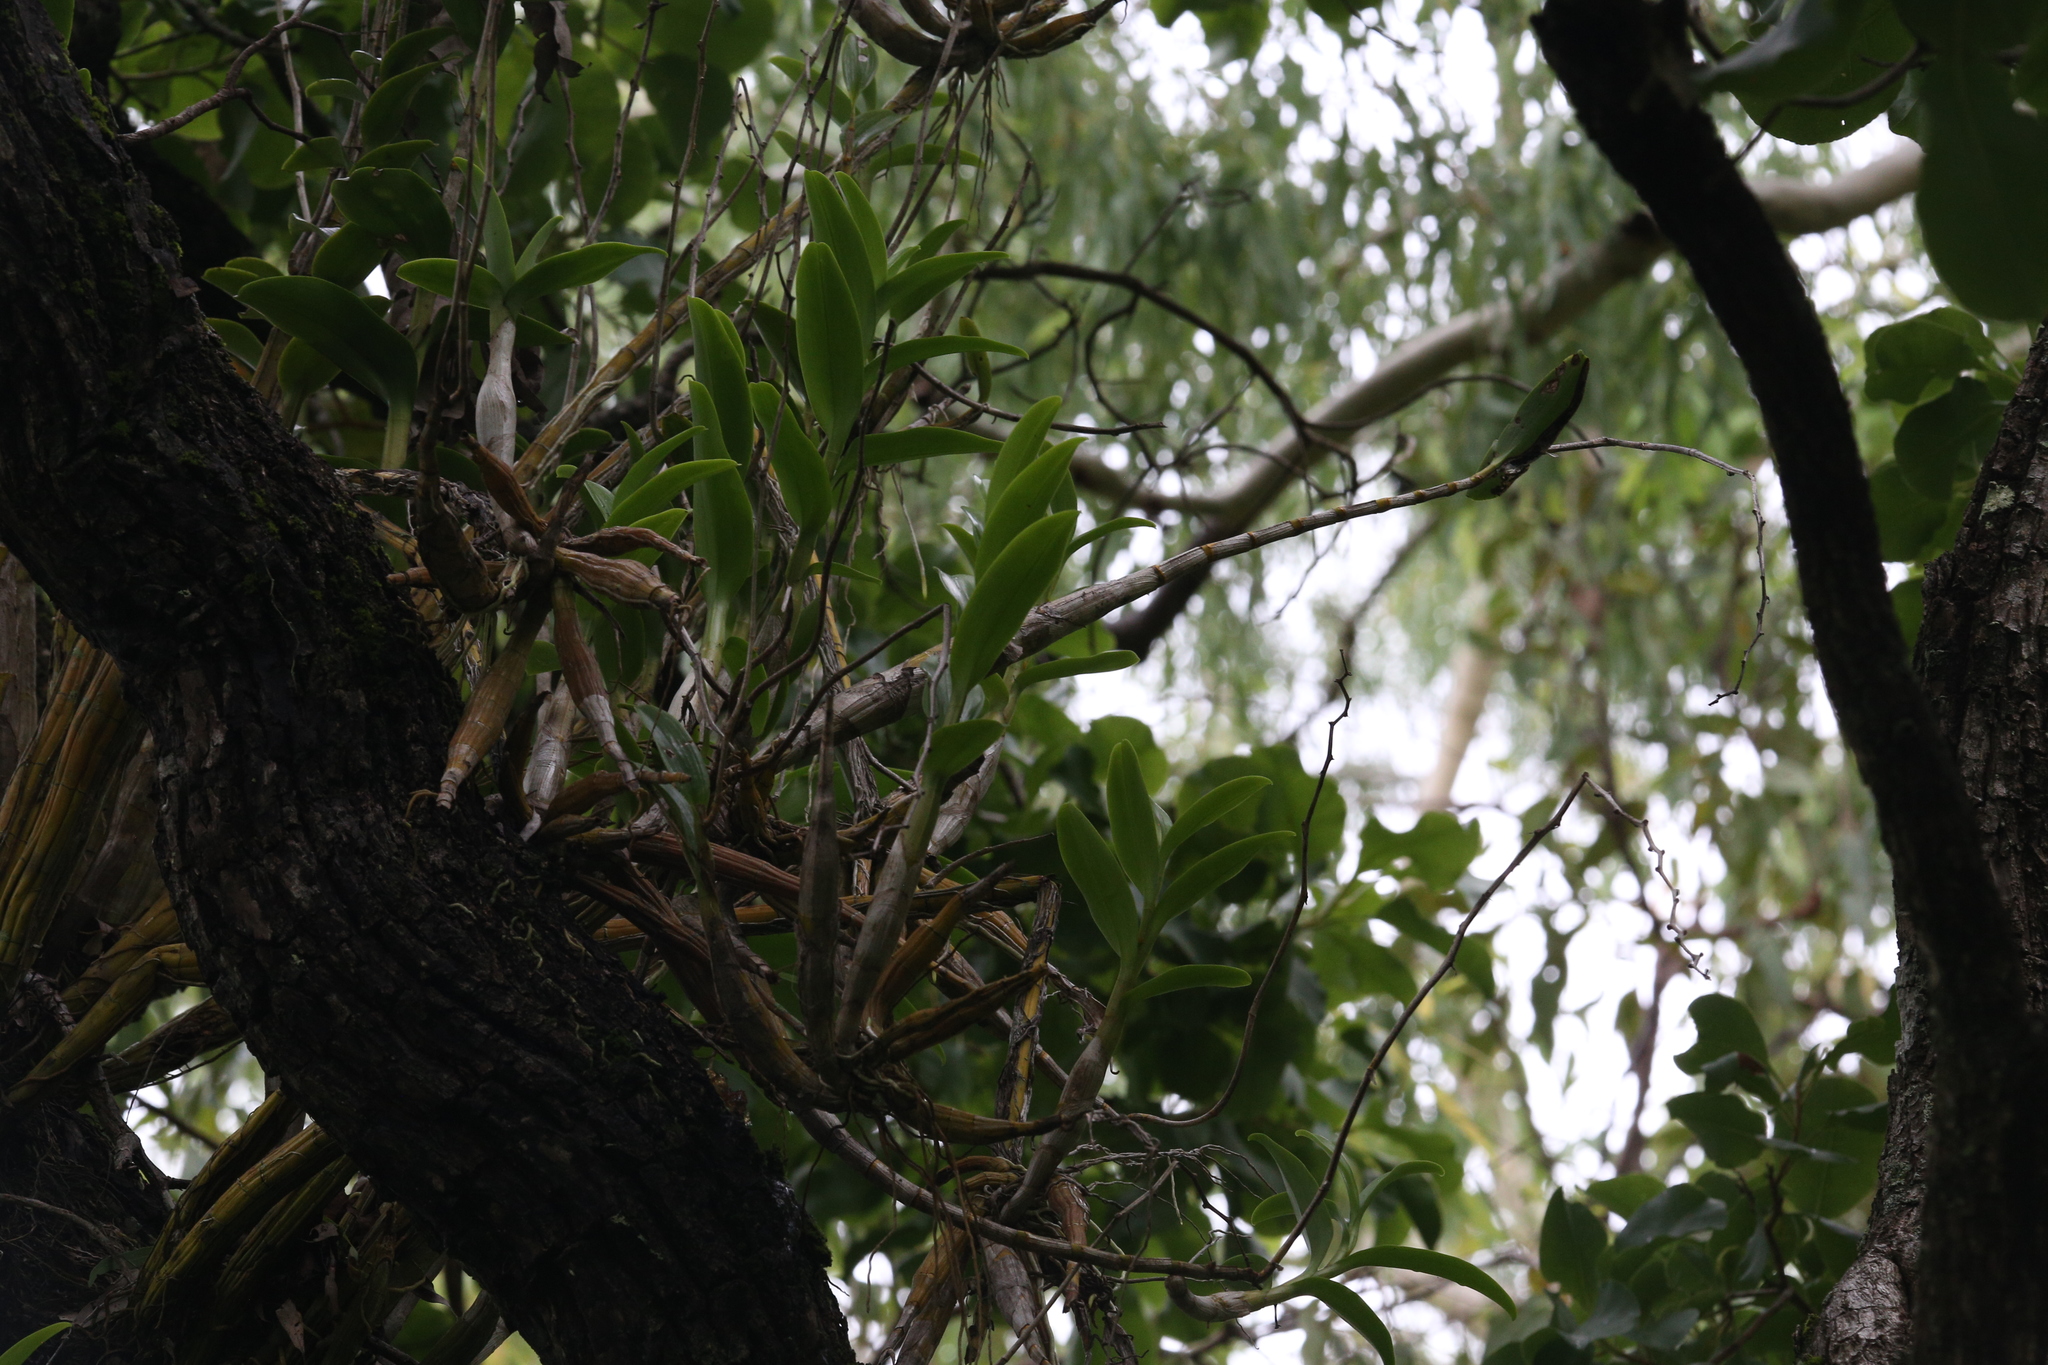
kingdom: Plantae
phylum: Tracheophyta
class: Liliopsida
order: Asparagales
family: Orchidaceae
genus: Dendrobium
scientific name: Dendrobium discolor
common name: Golden antler orchid
